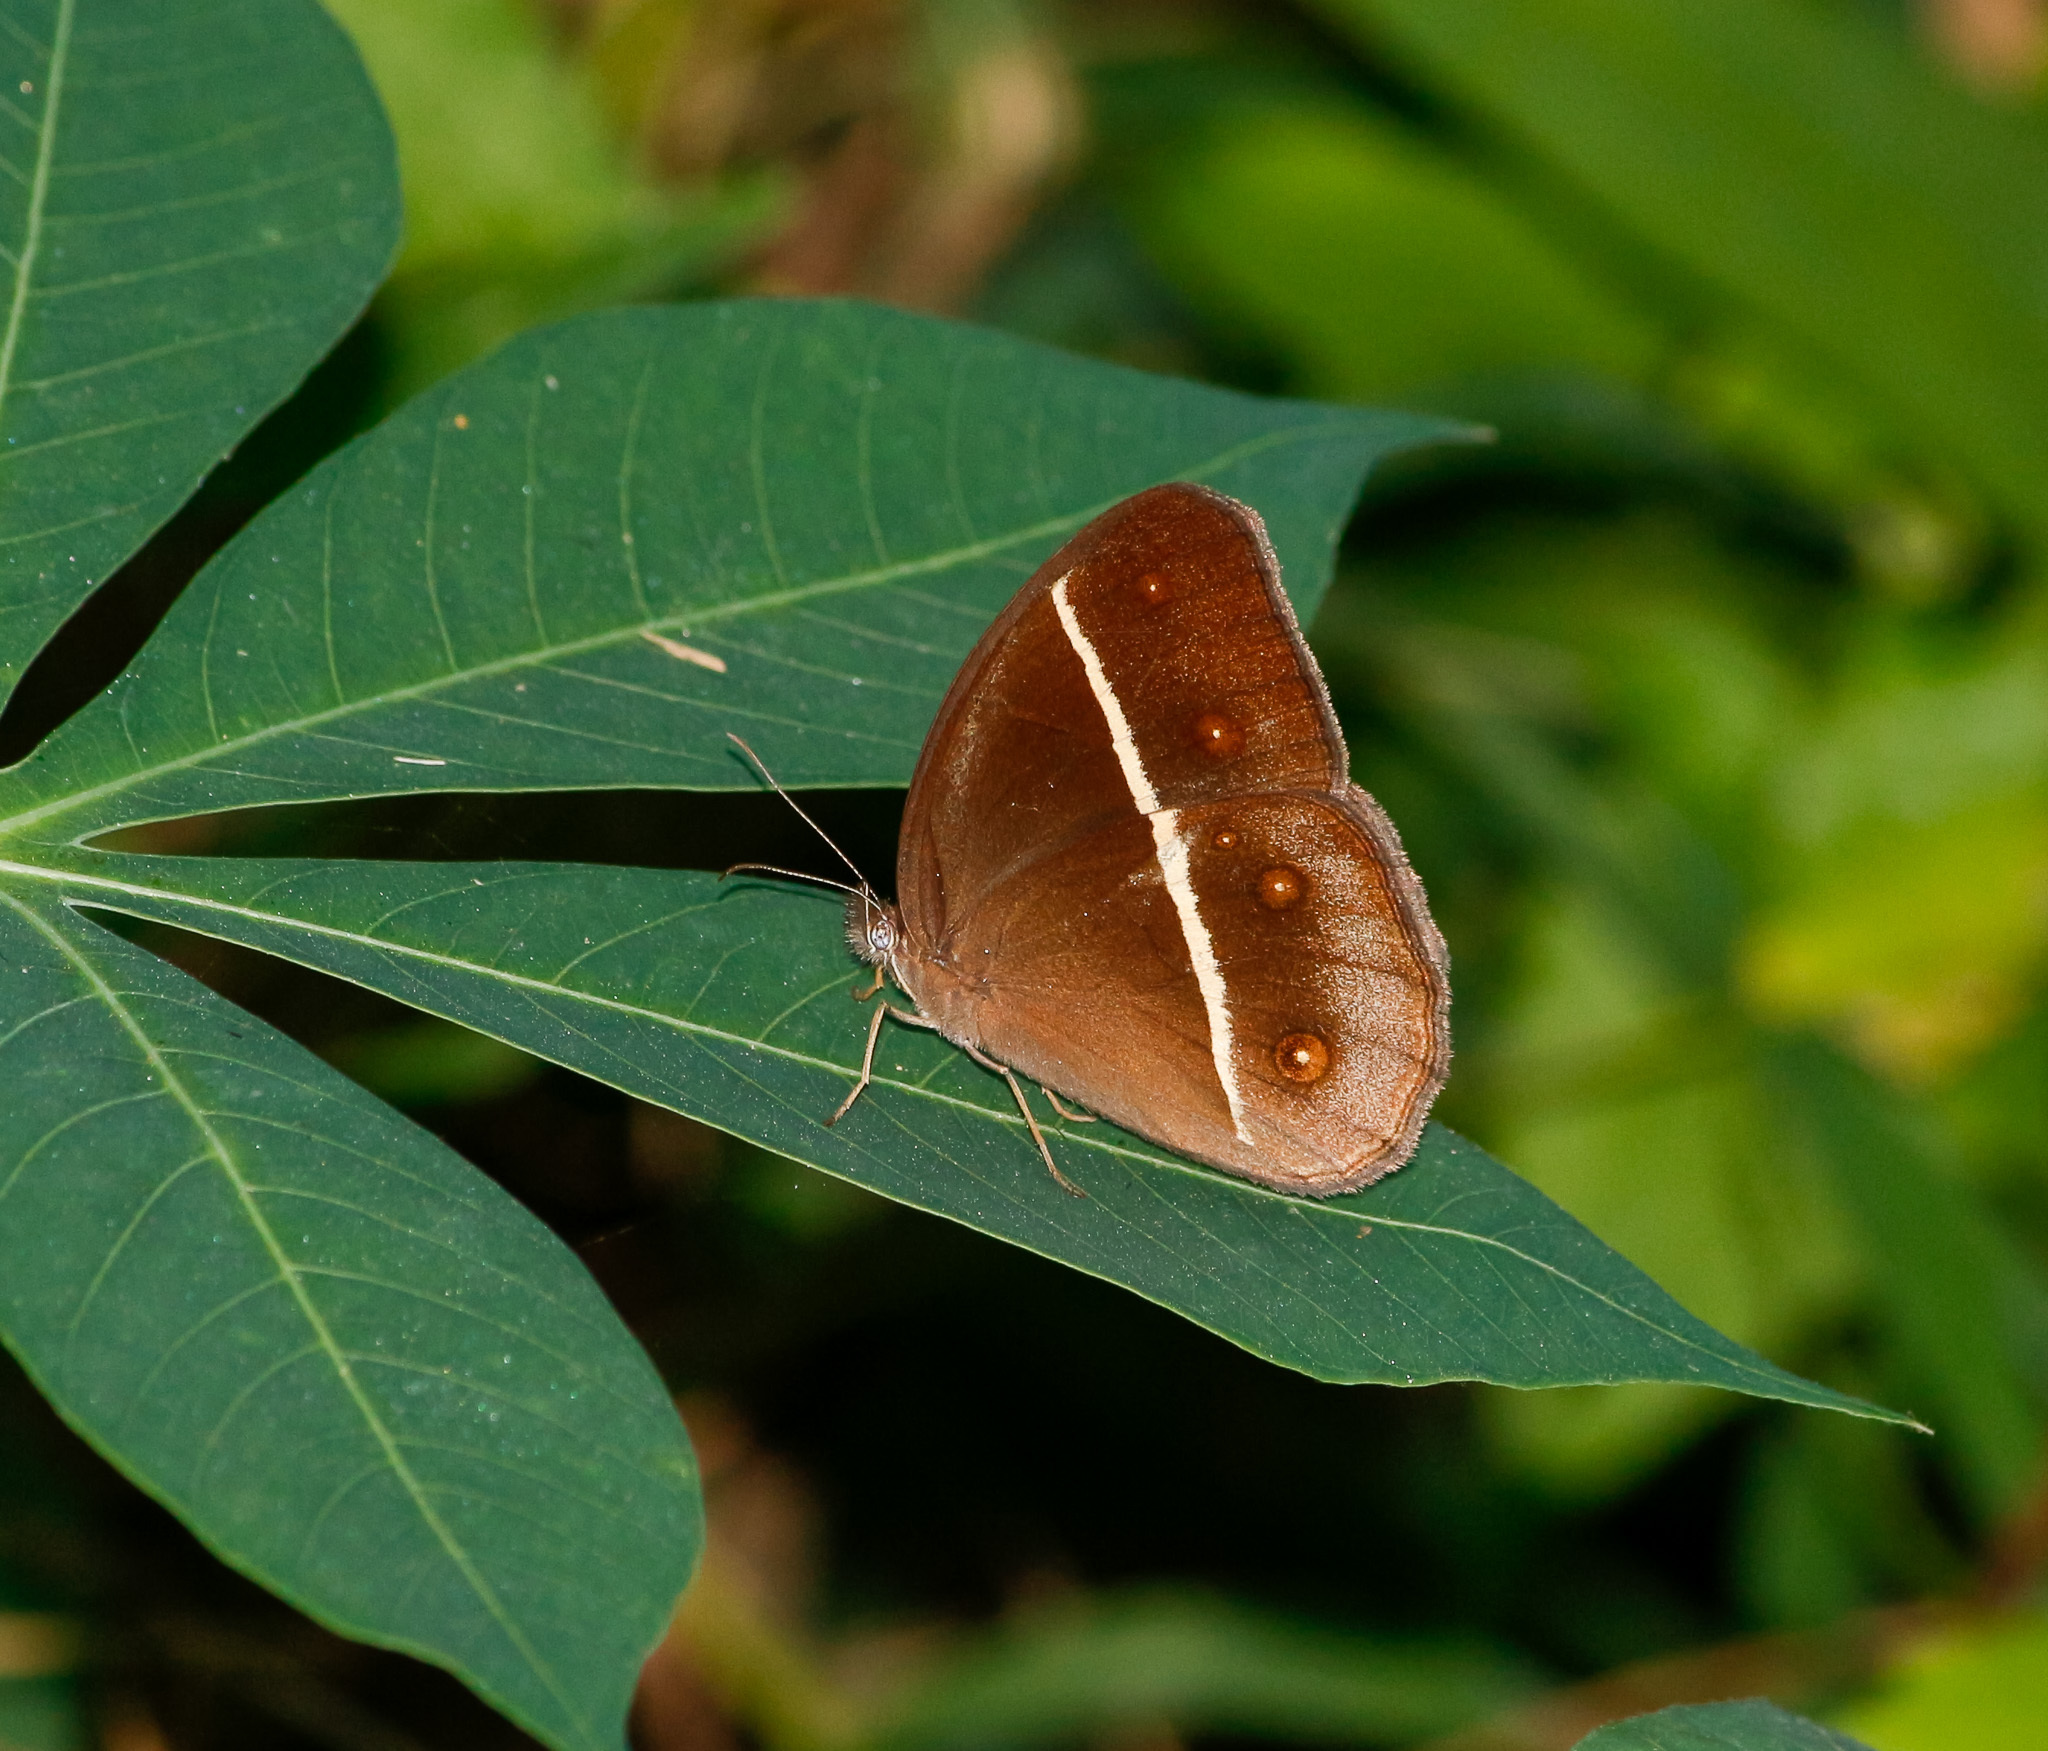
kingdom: Animalia
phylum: Arthropoda
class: Insecta
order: Lepidoptera
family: Nymphalidae
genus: Orsotriaena
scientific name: Orsotriaena medus
